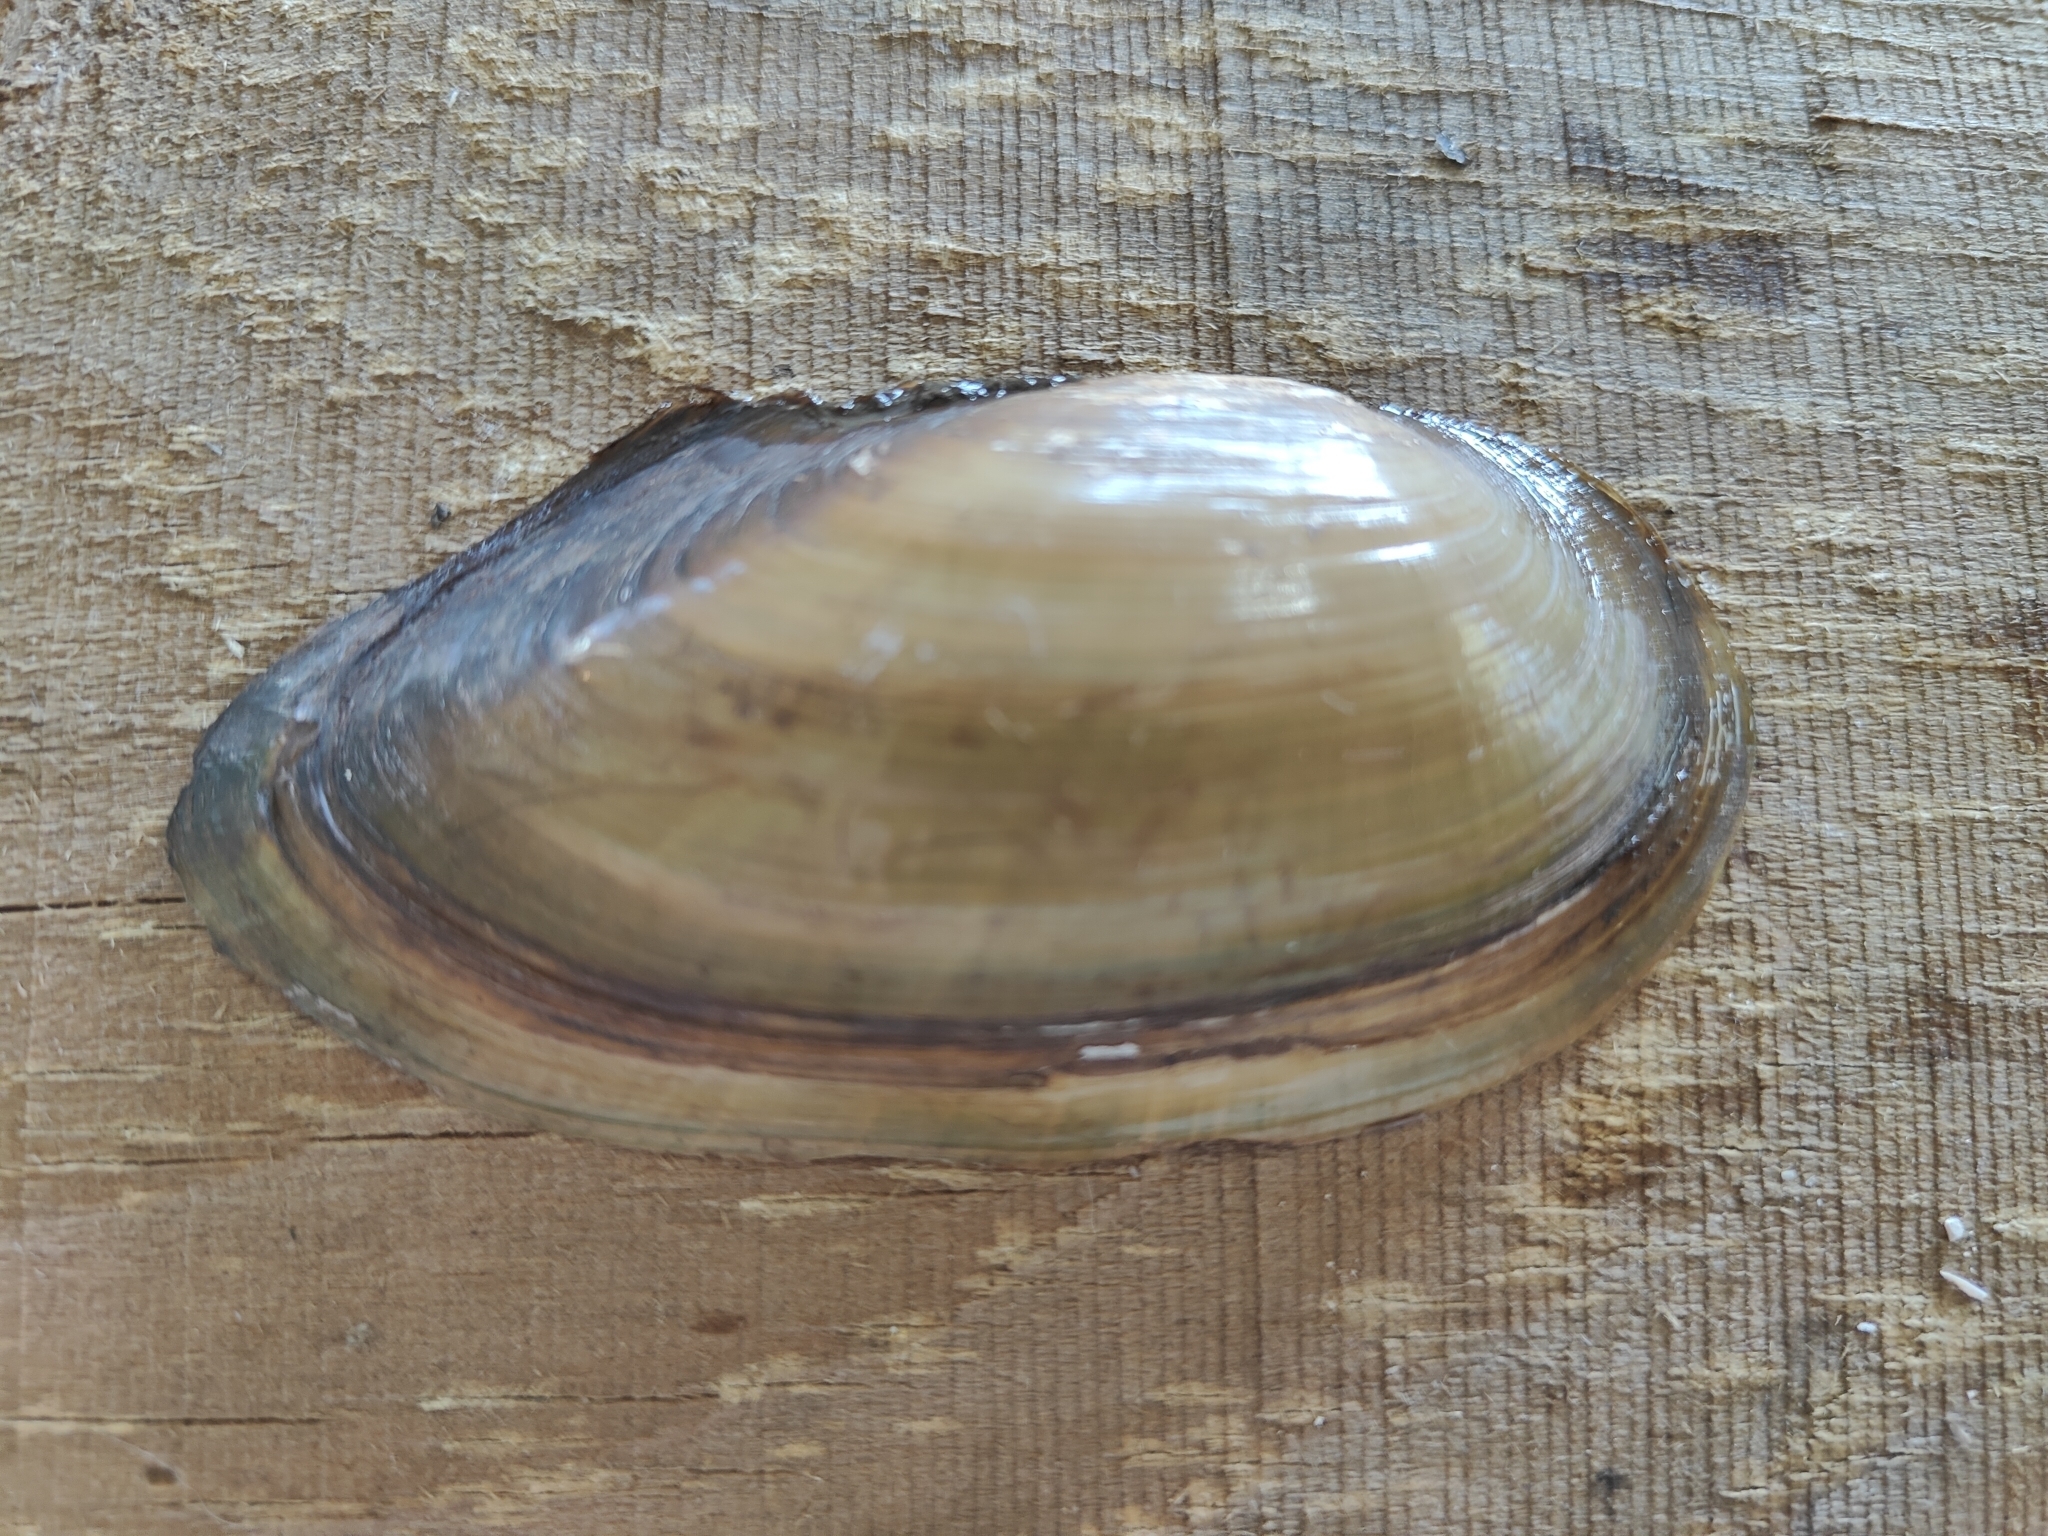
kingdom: Animalia
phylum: Mollusca
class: Bivalvia
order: Unionida
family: Unionidae
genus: Utterbackia
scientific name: Utterbackia imbecillis
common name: Paper pondshell
